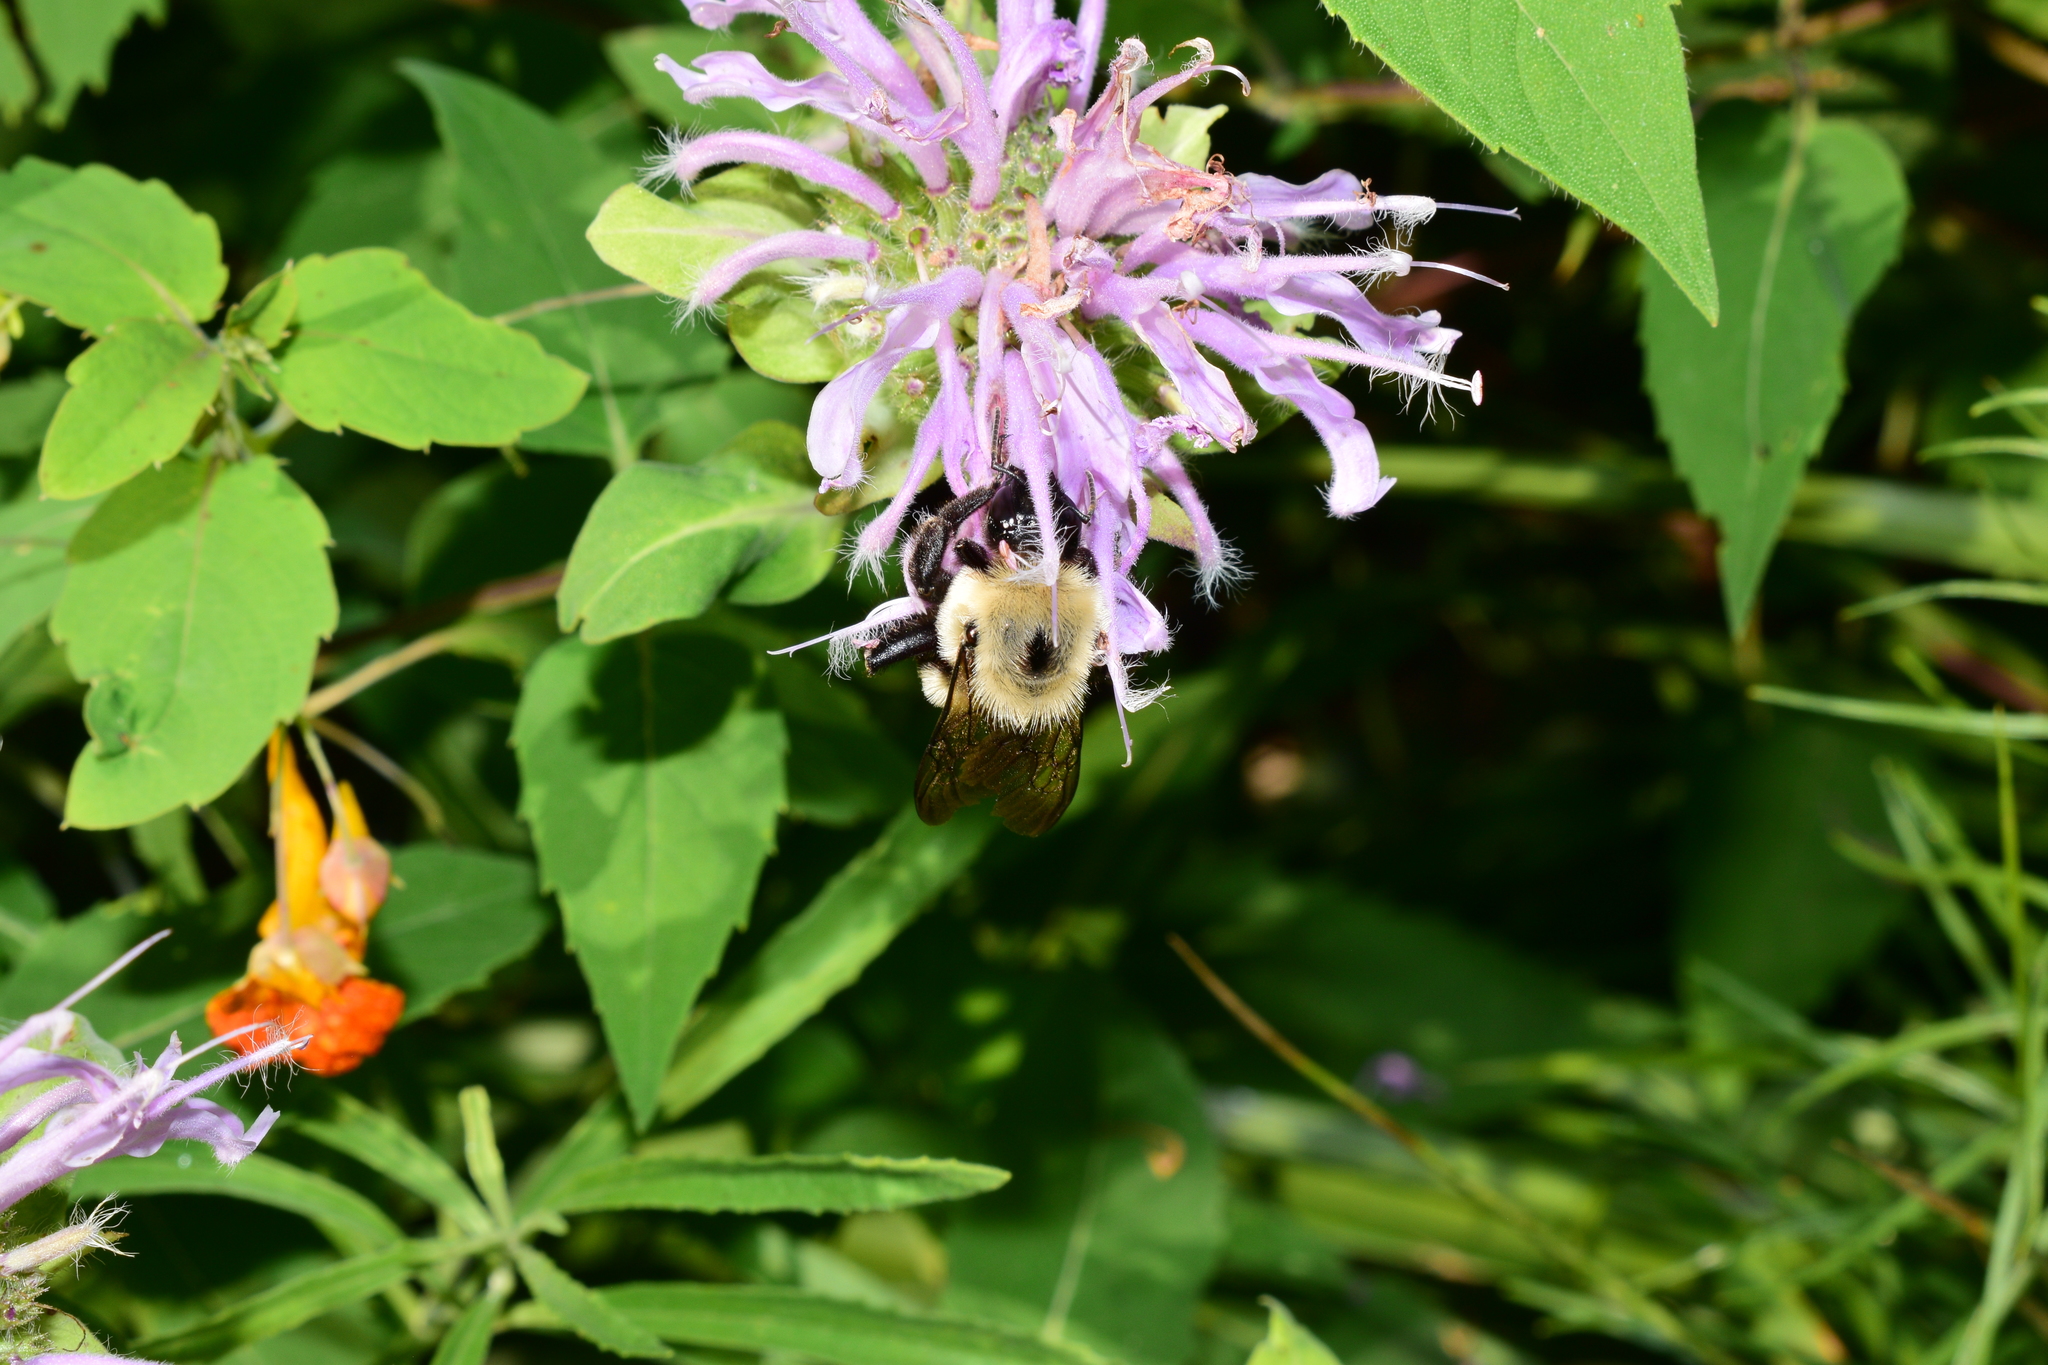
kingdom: Animalia
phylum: Arthropoda
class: Insecta
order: Hymenoptera
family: Apidae
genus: Bombus
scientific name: Bombus griseocollis
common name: Brown-belted bumble bee
